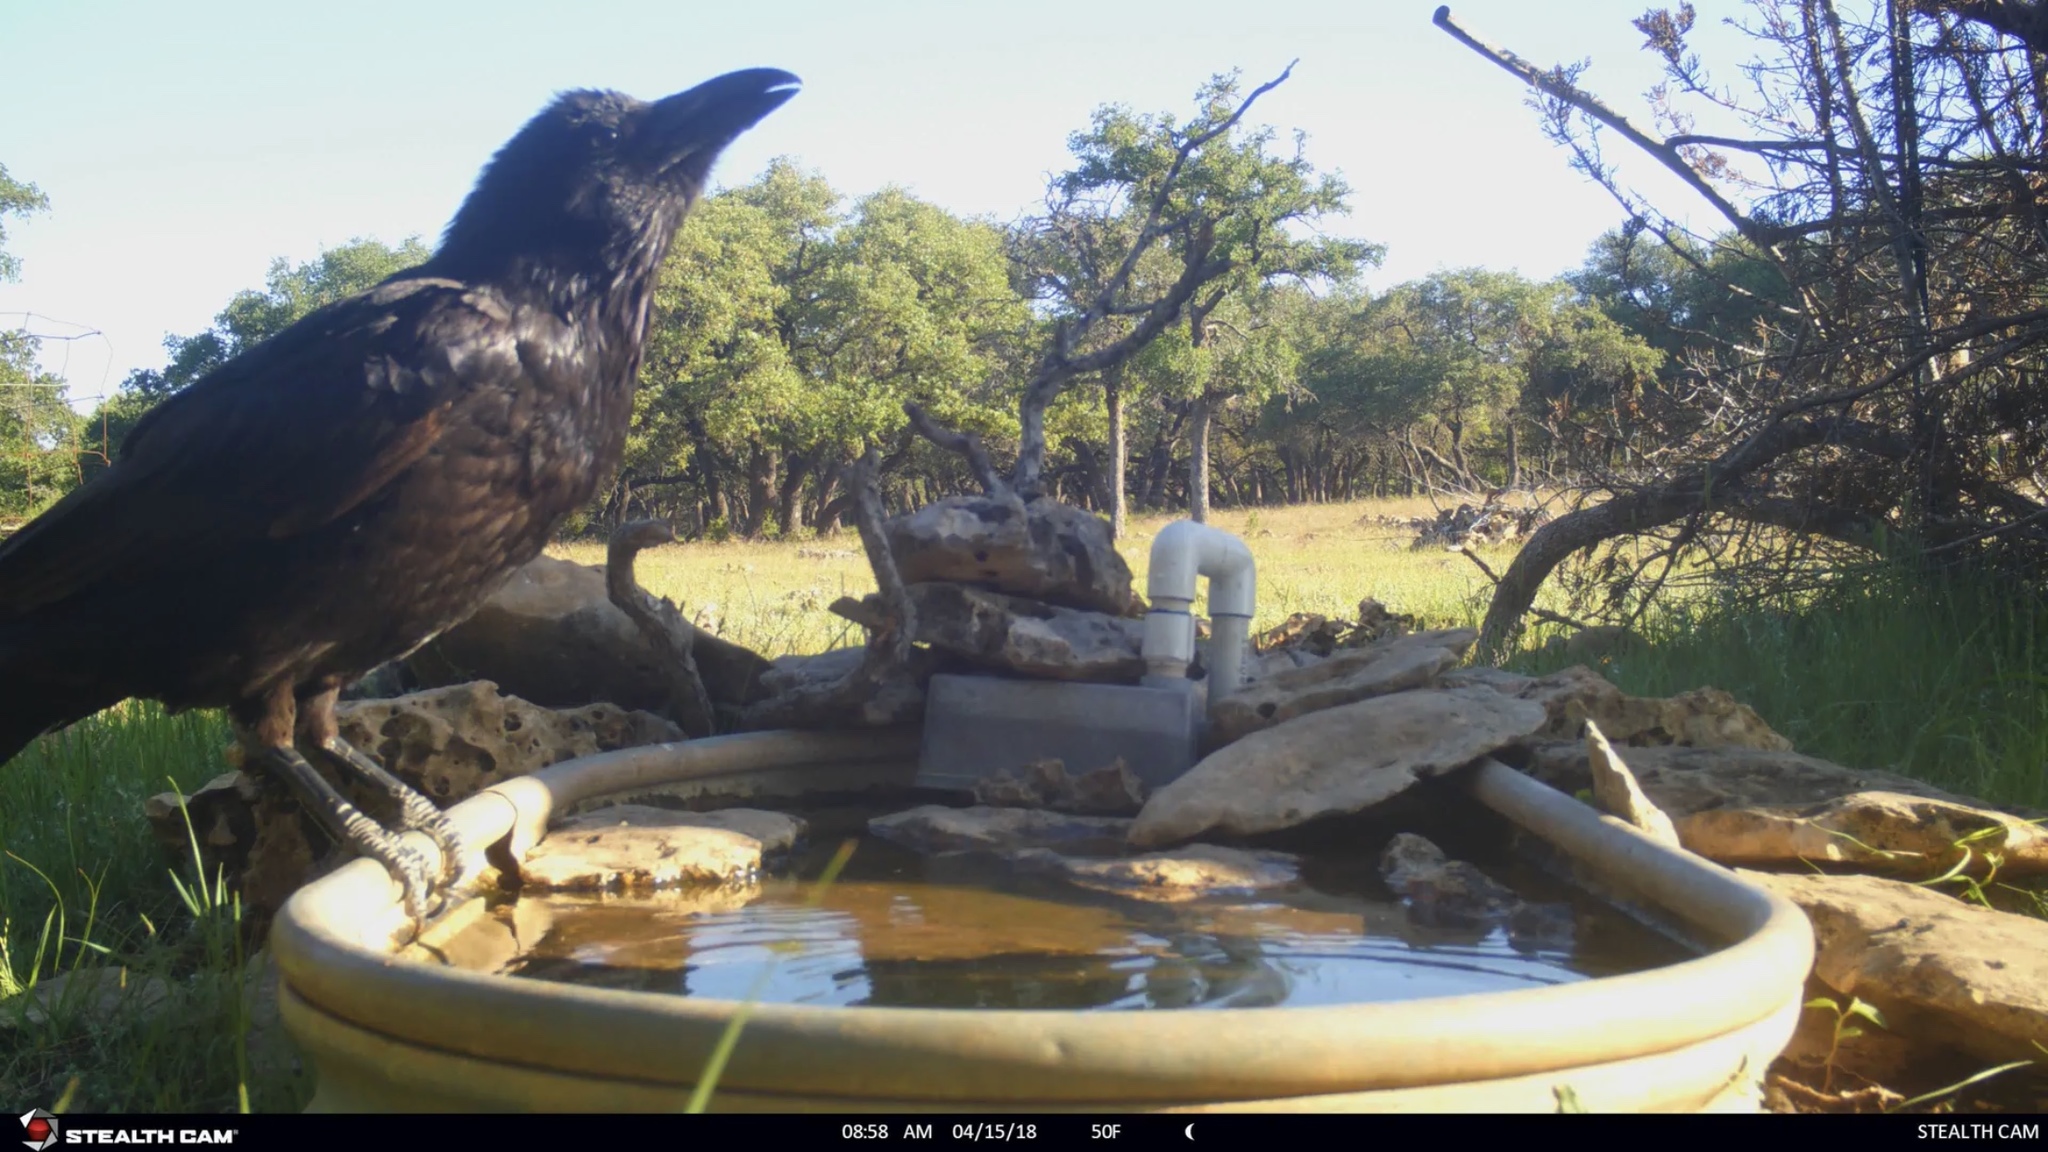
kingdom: Animalia
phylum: Chordata
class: Aves
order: Passeriformes
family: Corvidae
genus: Corvus
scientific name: Corvus corax
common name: Common raven
